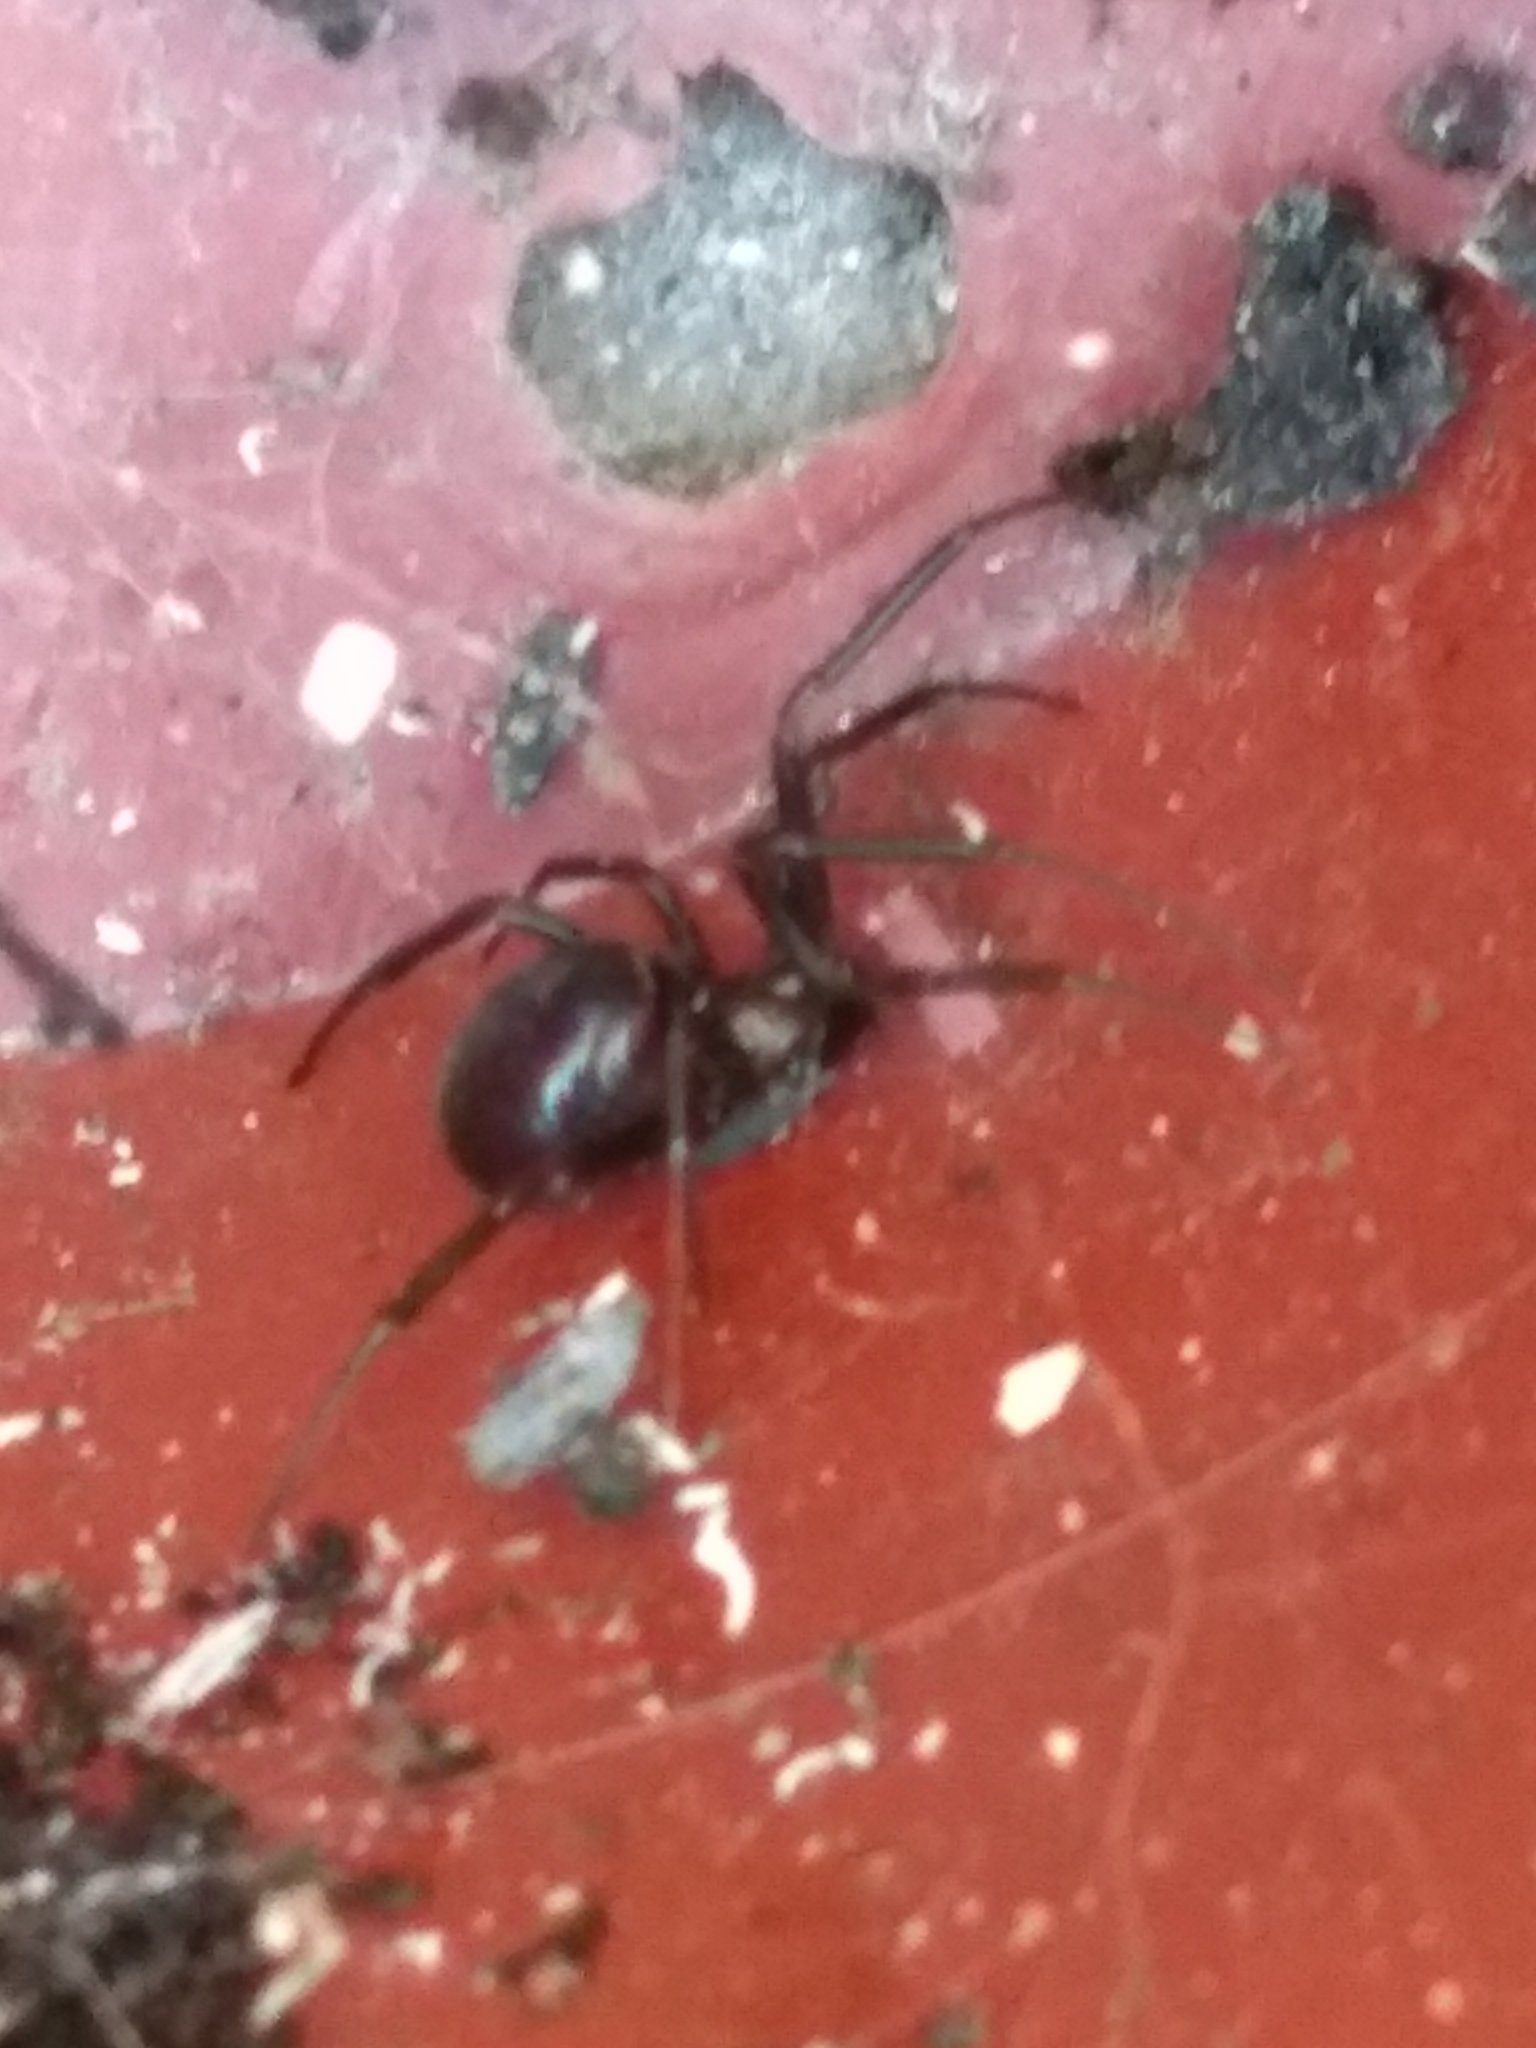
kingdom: Animalia
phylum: Arthropoda
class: Arachnida
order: Araneae
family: Theridiidae
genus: Steatoda
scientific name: Steatoda grossa
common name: False black widow
